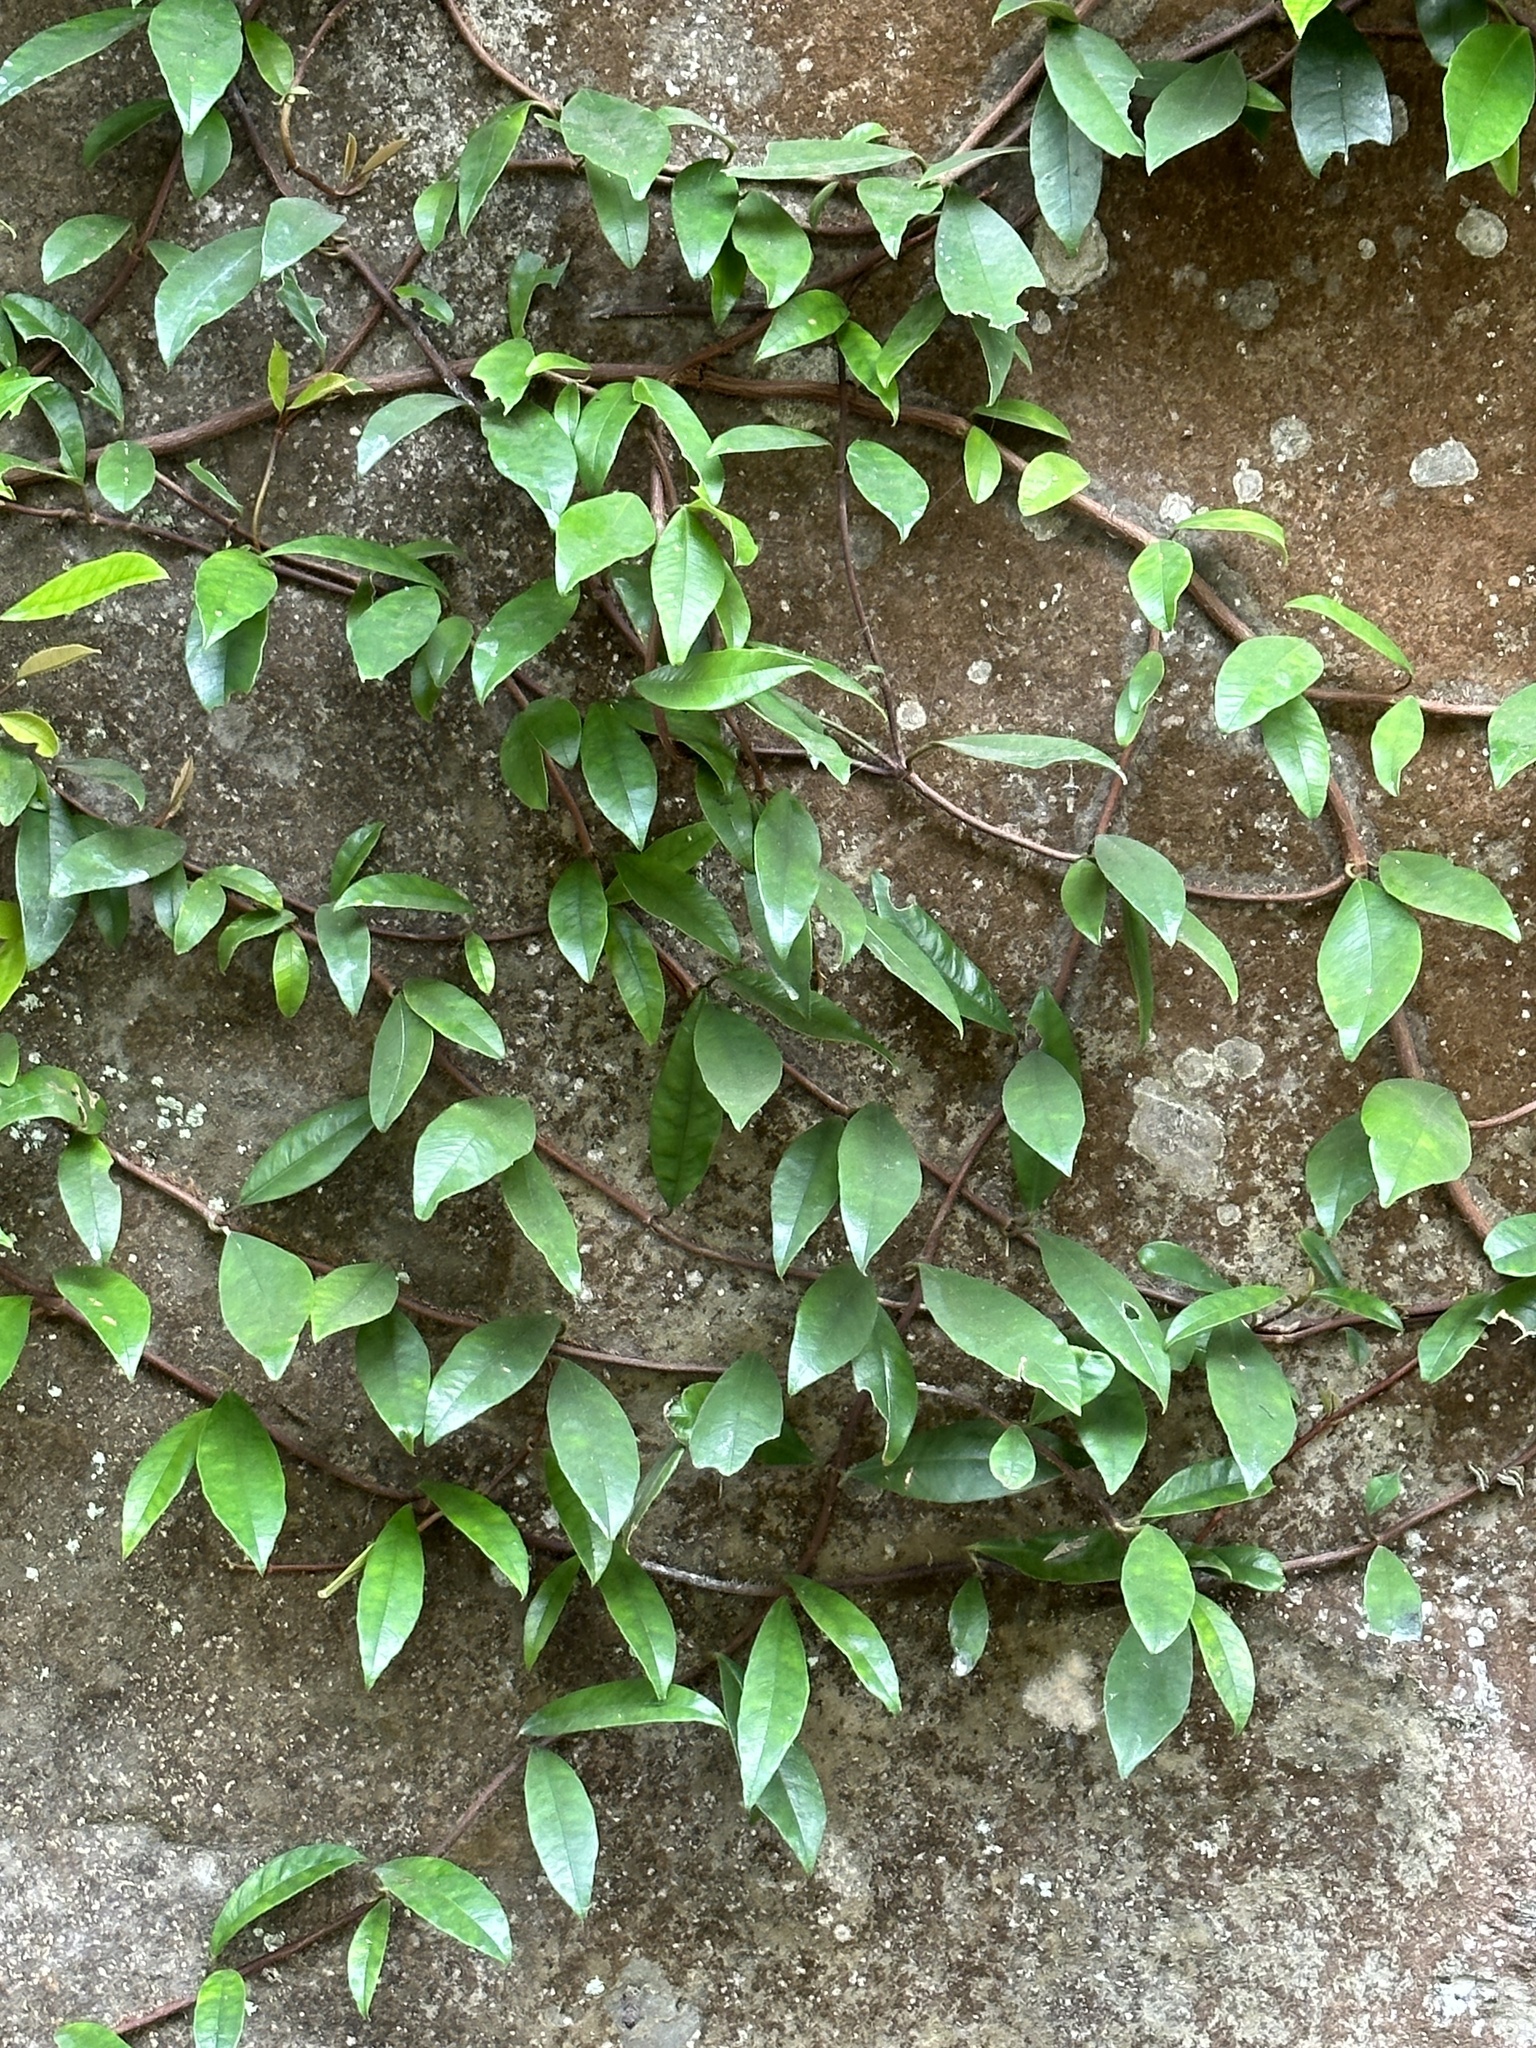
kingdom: Plantae
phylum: Tracheophyta
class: Magnoliopsida
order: Cornales
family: Hydrangeaceae
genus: Hydrangea
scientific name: Hydrangea viburnoides
